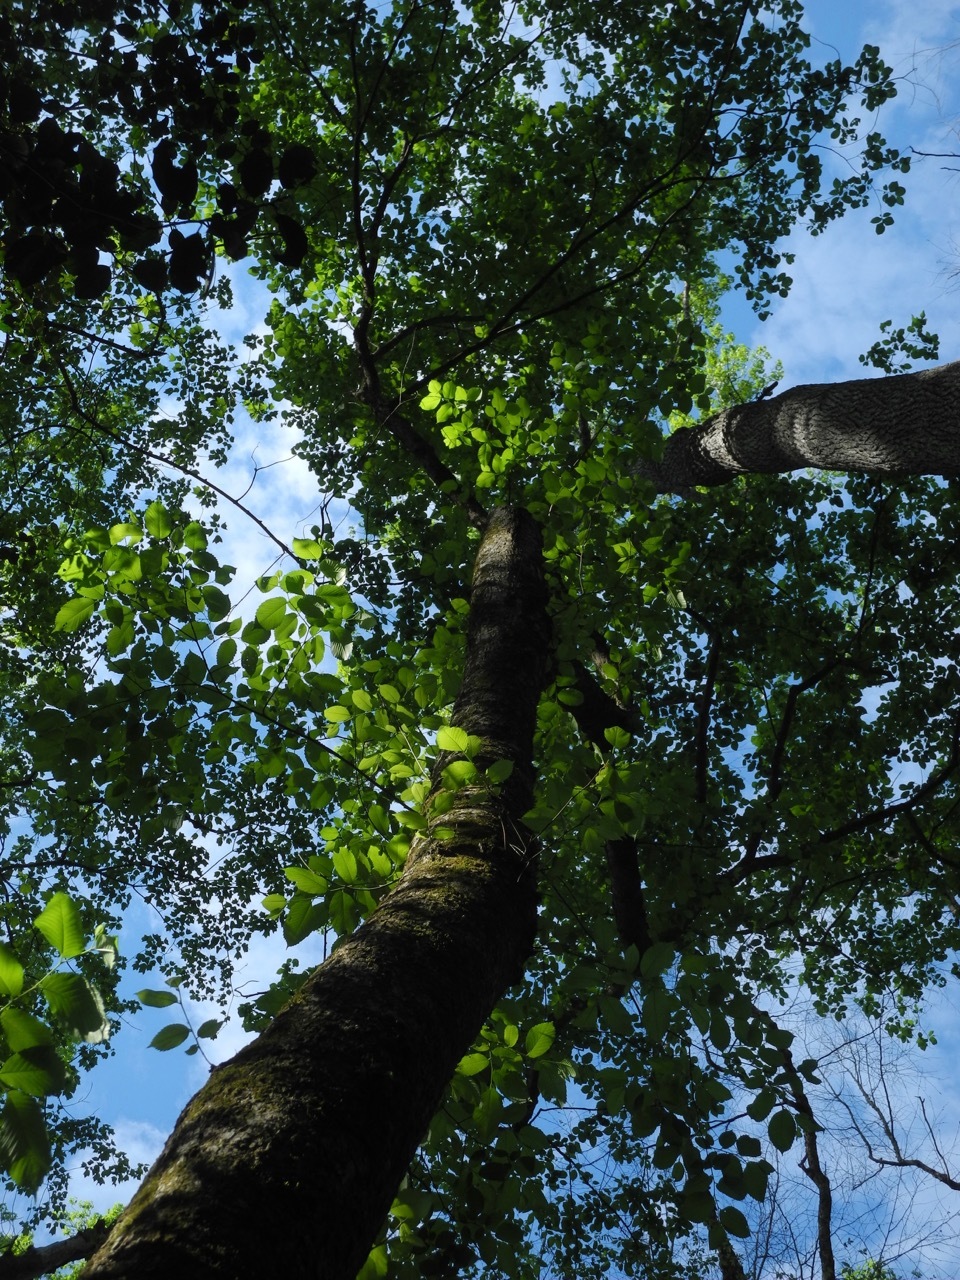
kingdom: Plantae
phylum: Tracheophyta
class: Magnoliopsida
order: Rosales
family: Ulmaceae
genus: Ulmus
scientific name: Ulmus rubra
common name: Slippery elm
